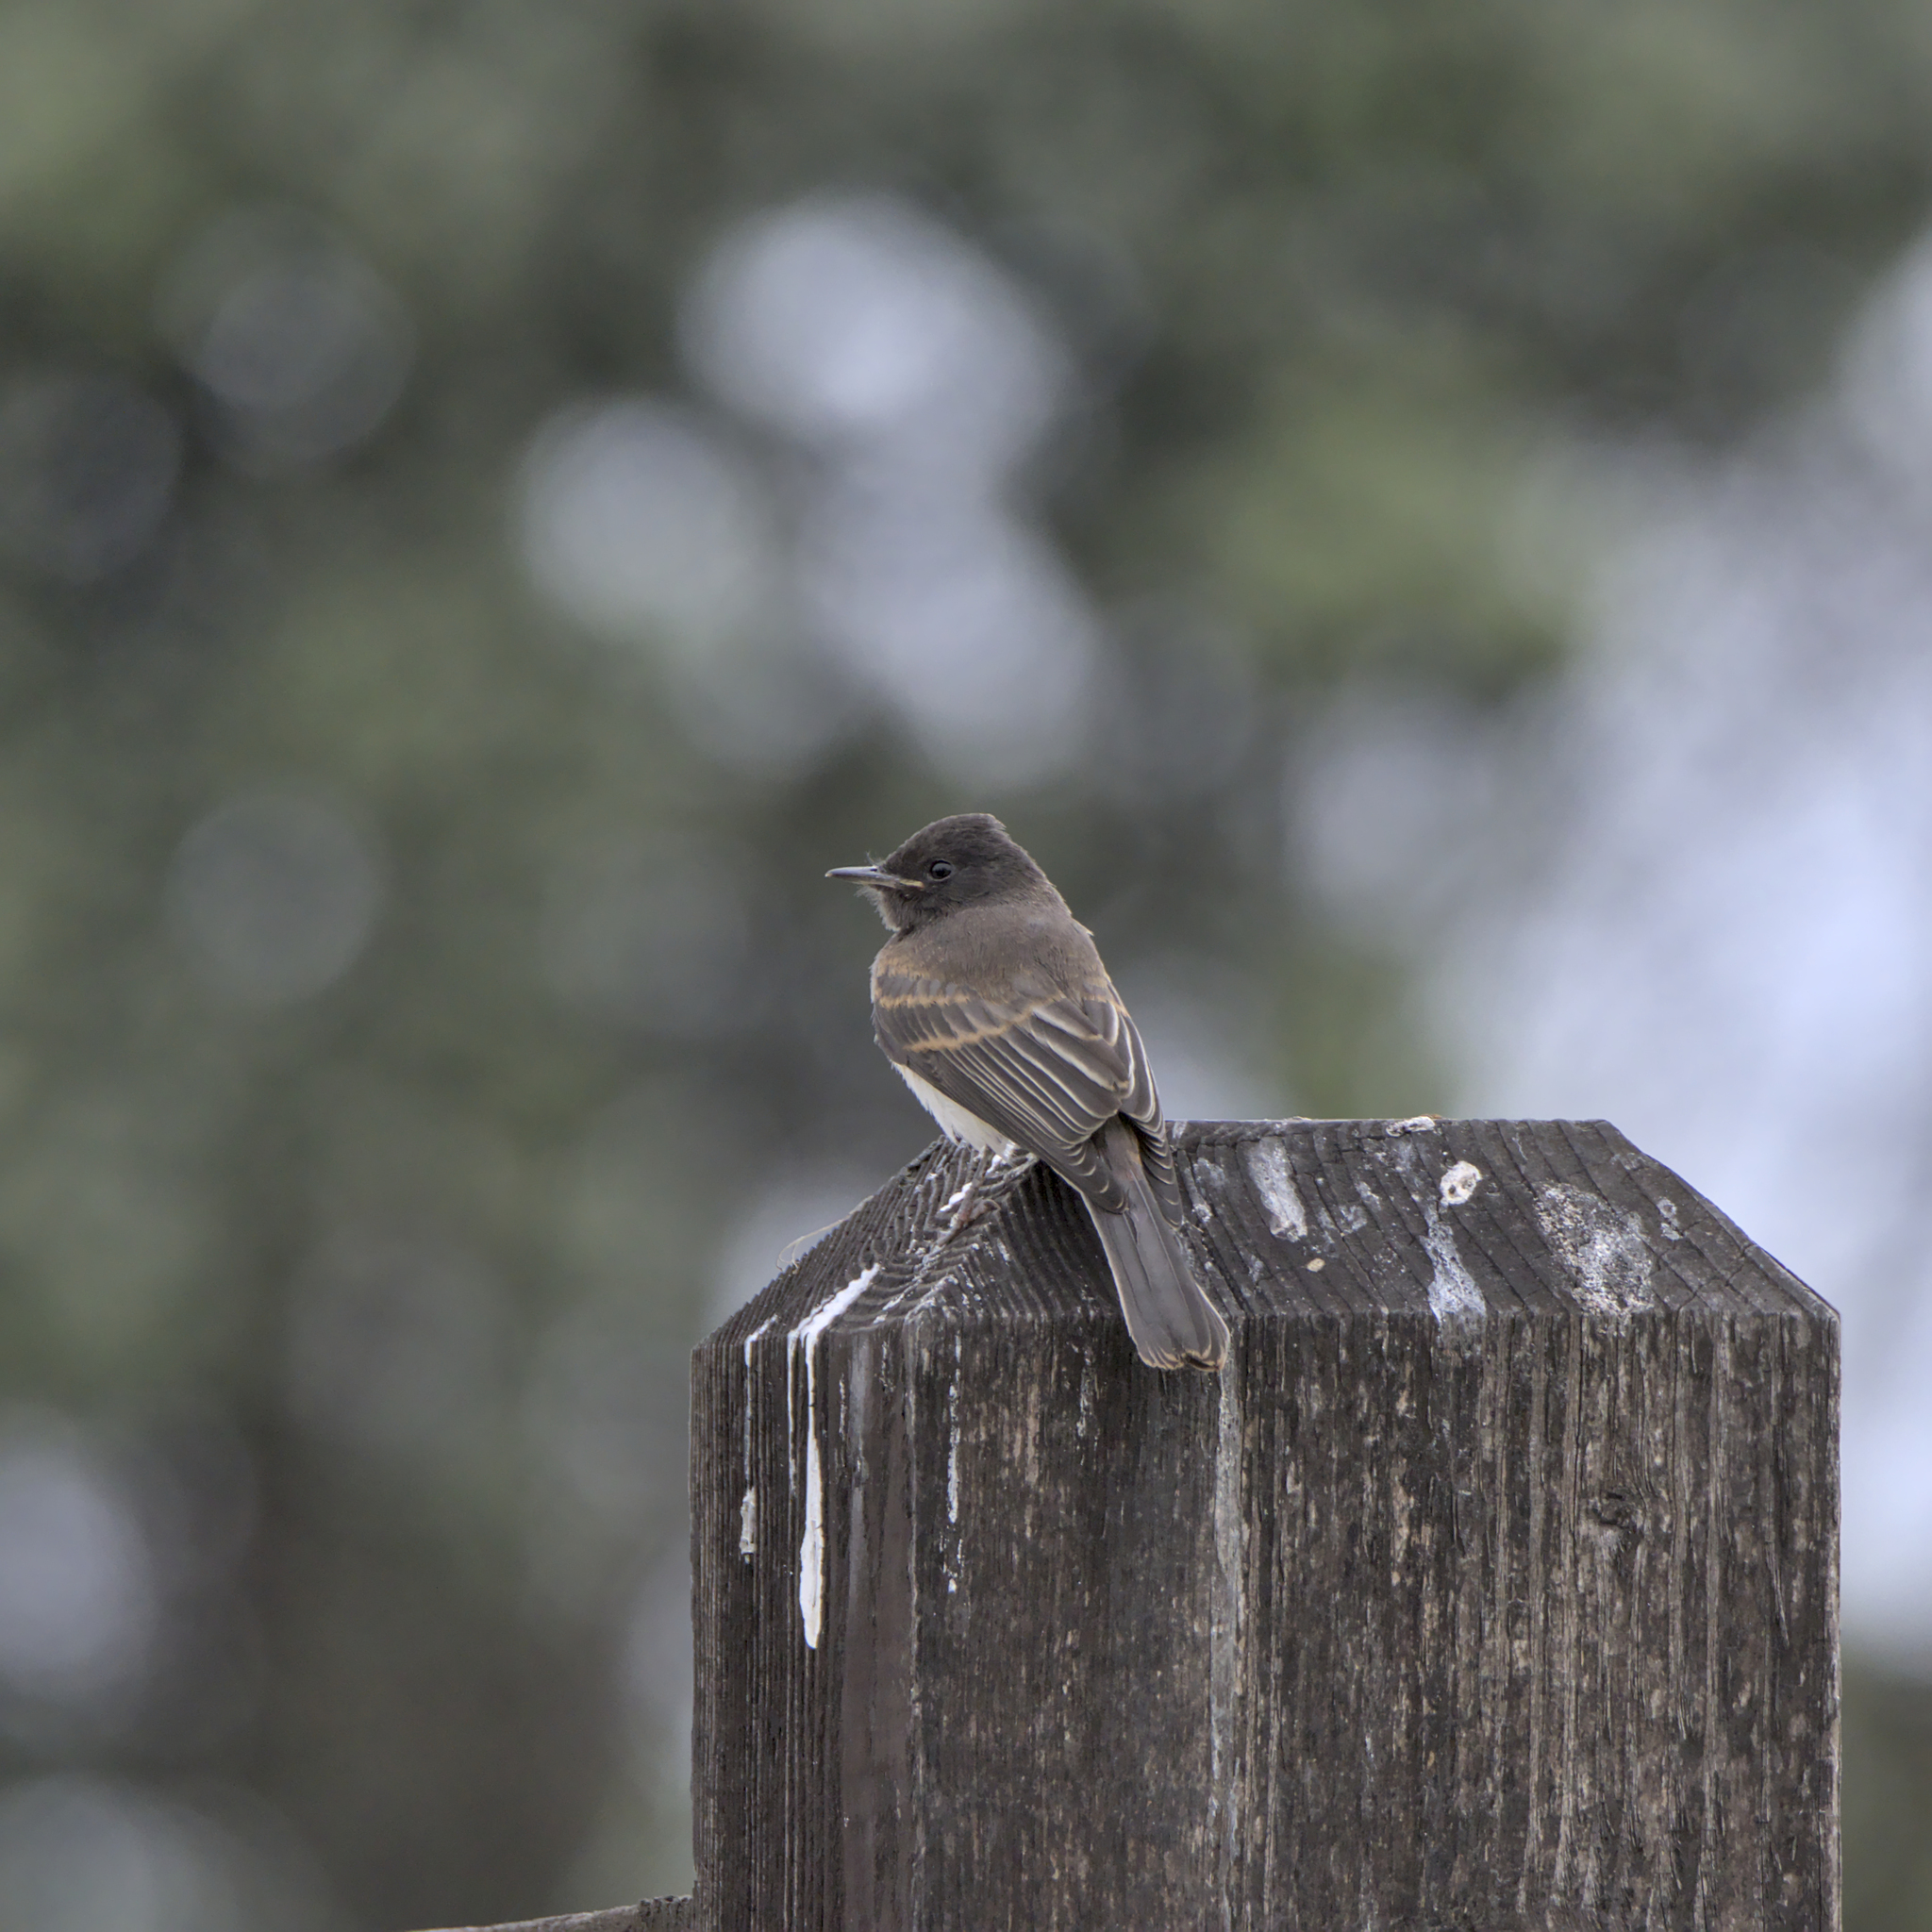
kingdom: Animalia
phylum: Chordata
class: Aves
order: Passeriformes
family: Tyrannidae
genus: Sayornis
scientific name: Sayornis nigricans
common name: Black phoebe
